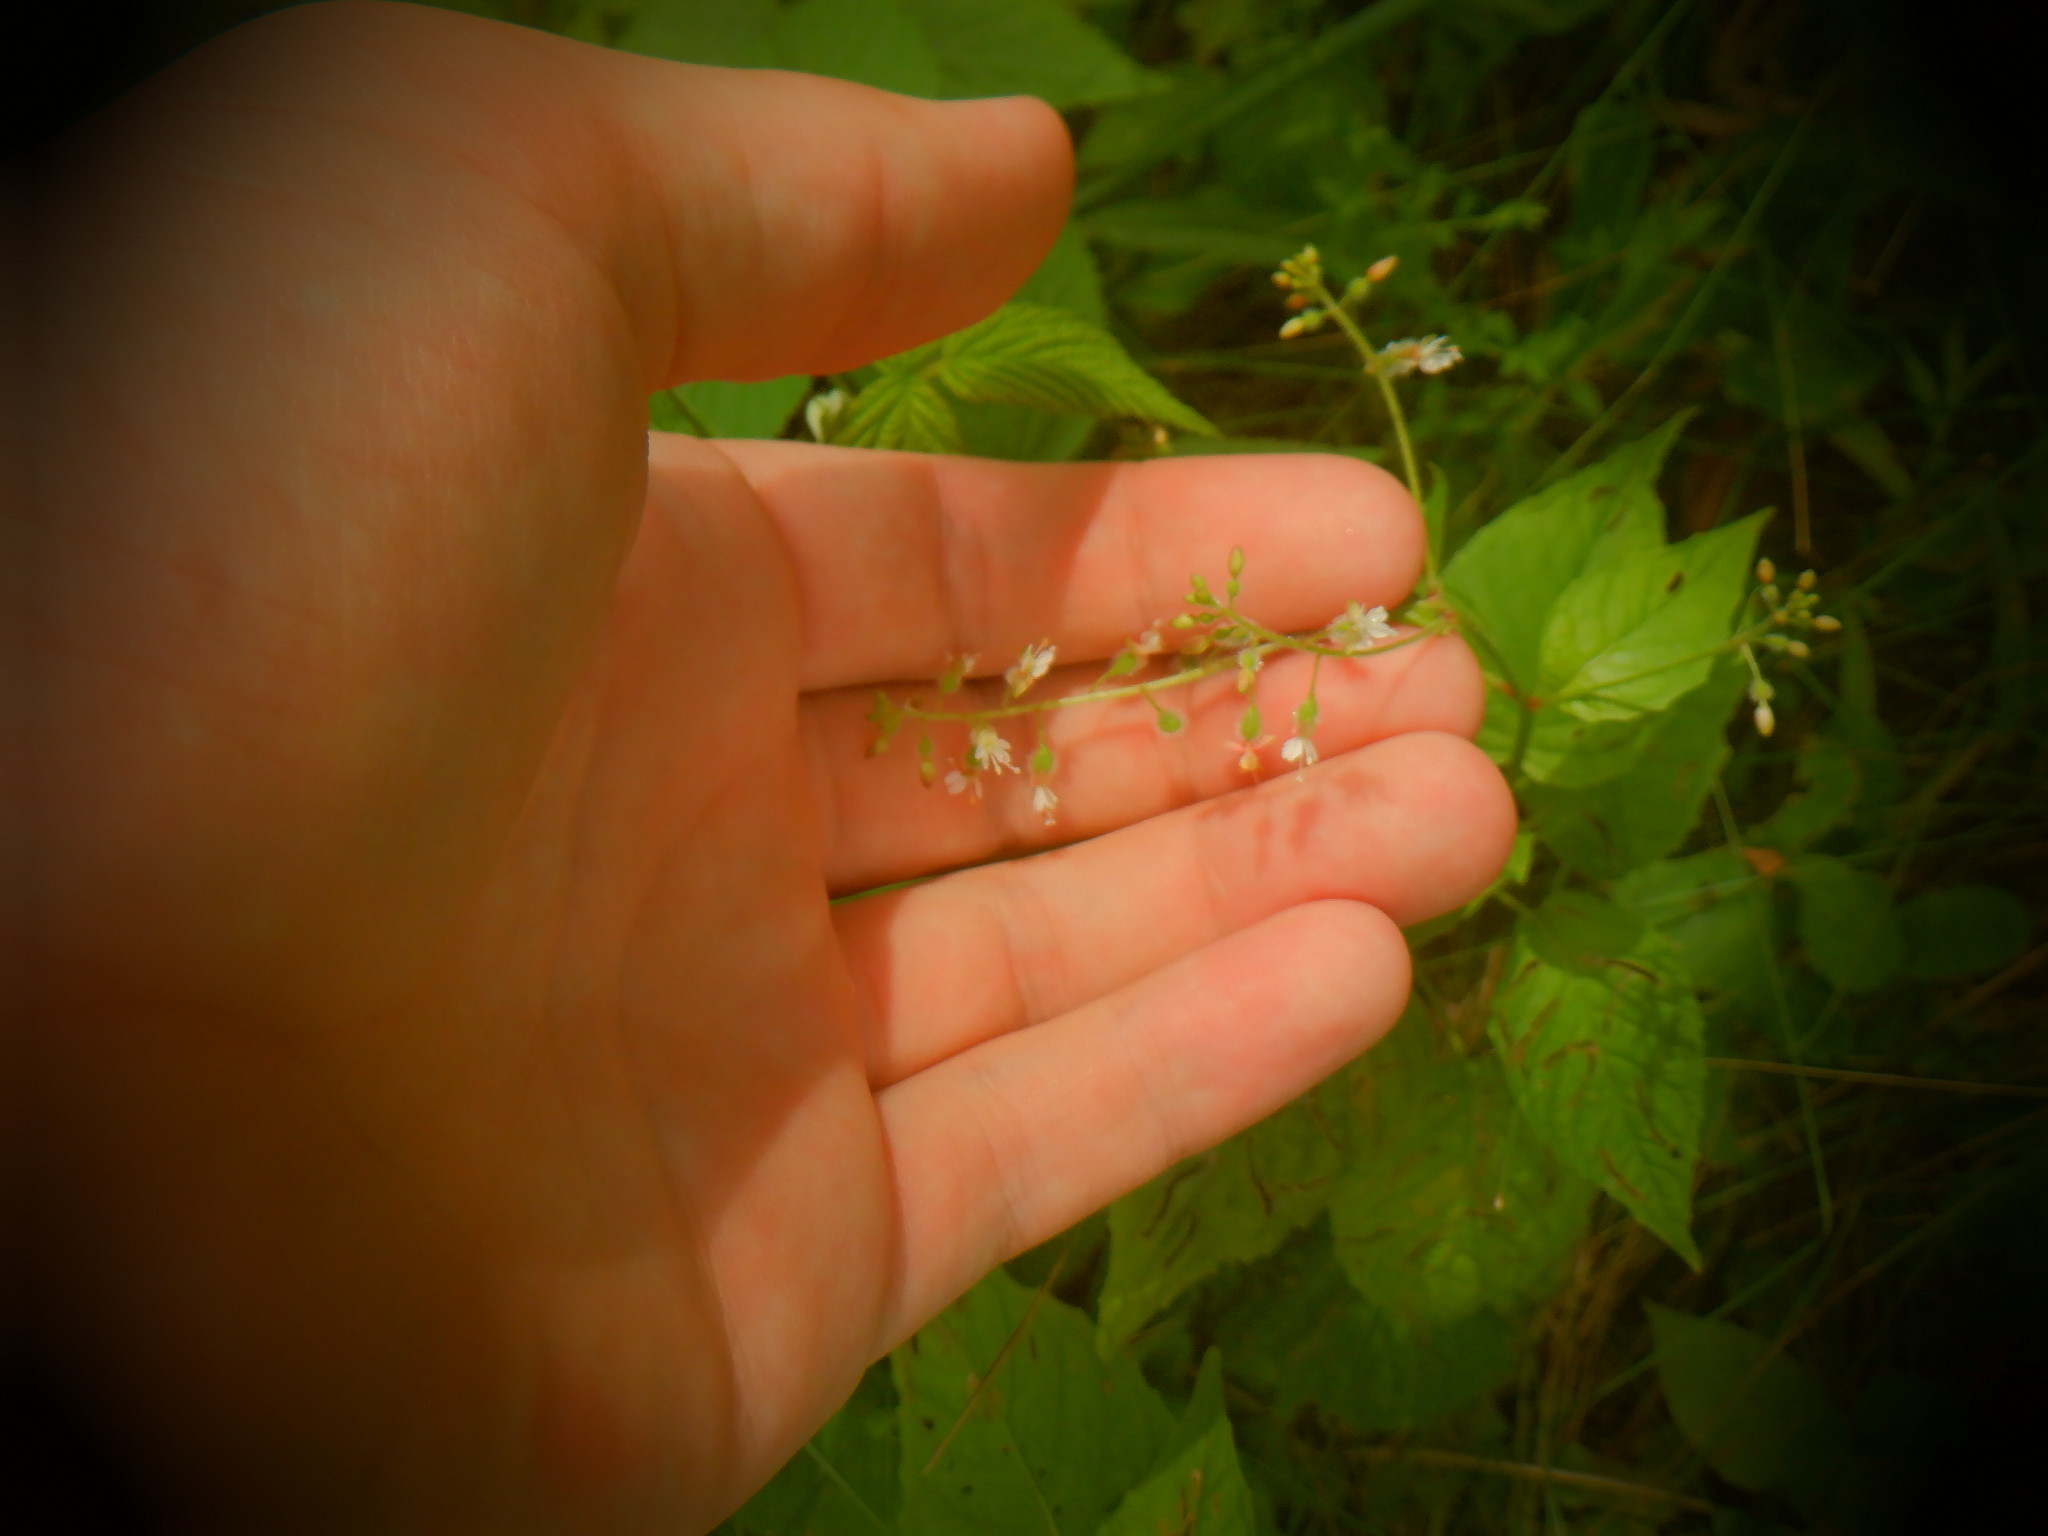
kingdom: Plantae
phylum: Tracheophyta
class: Magnoliopsida
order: Myrtales
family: Onagraceae
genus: Circaea
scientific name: Circaea canadensis
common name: Broad-leaved enchanter's nightshade
